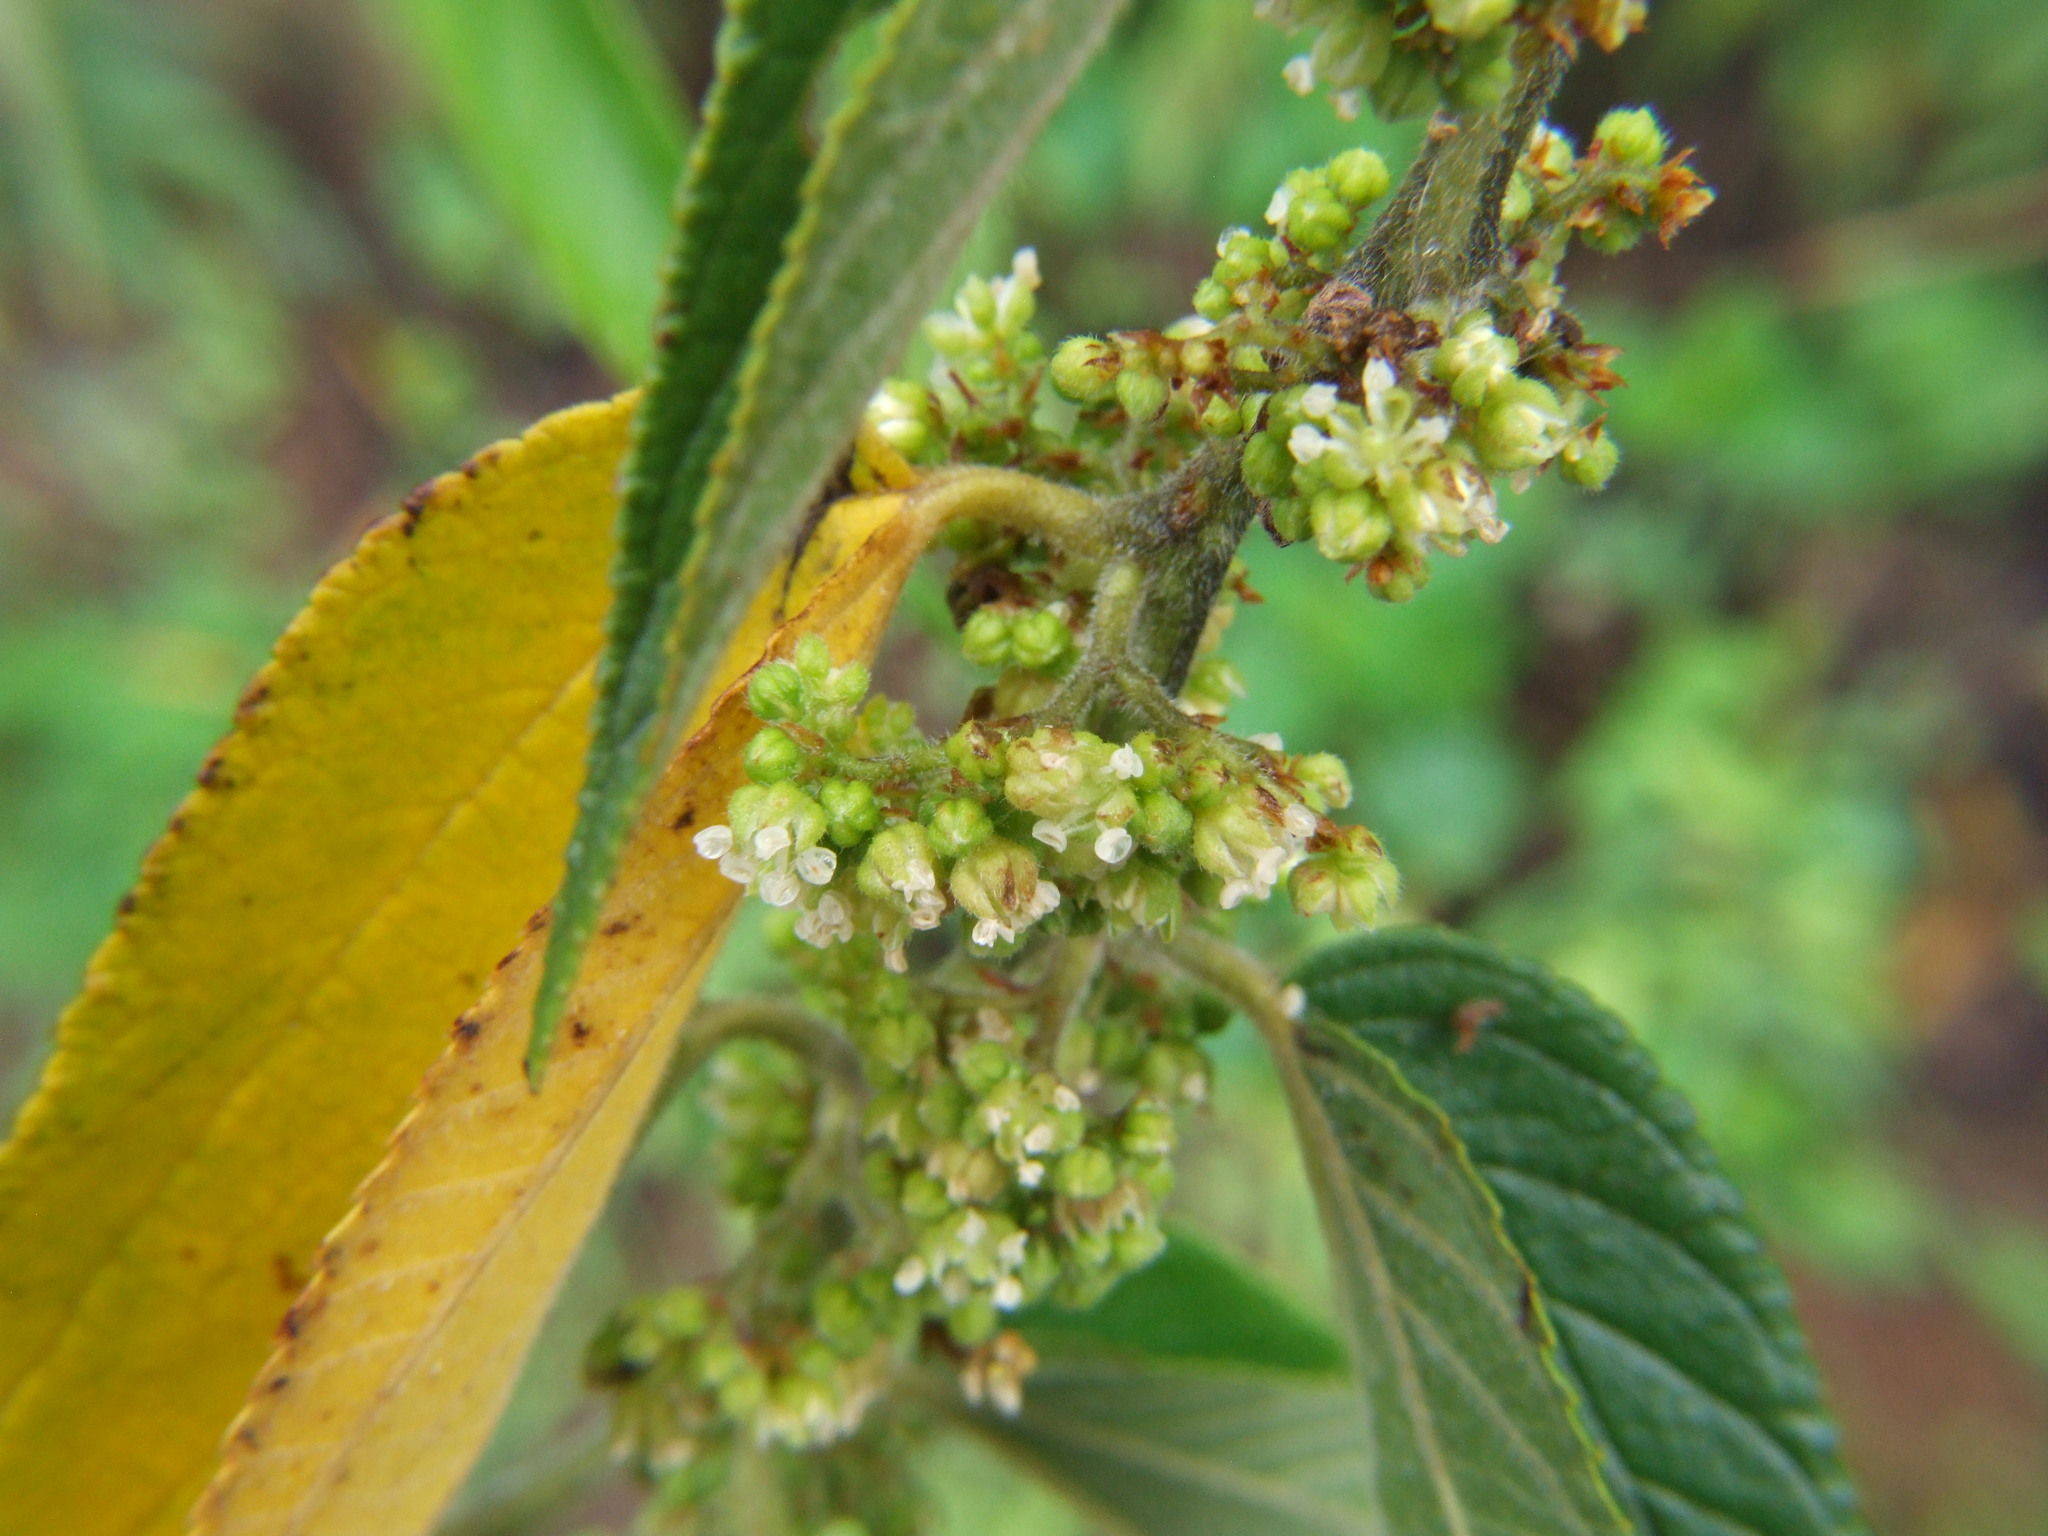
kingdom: Plantae
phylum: Tracheophyta
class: Magnoliopsida
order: Rosales
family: Cannabaceae
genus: Trema
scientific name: Trema micranthum
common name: Jamaican nettletree
